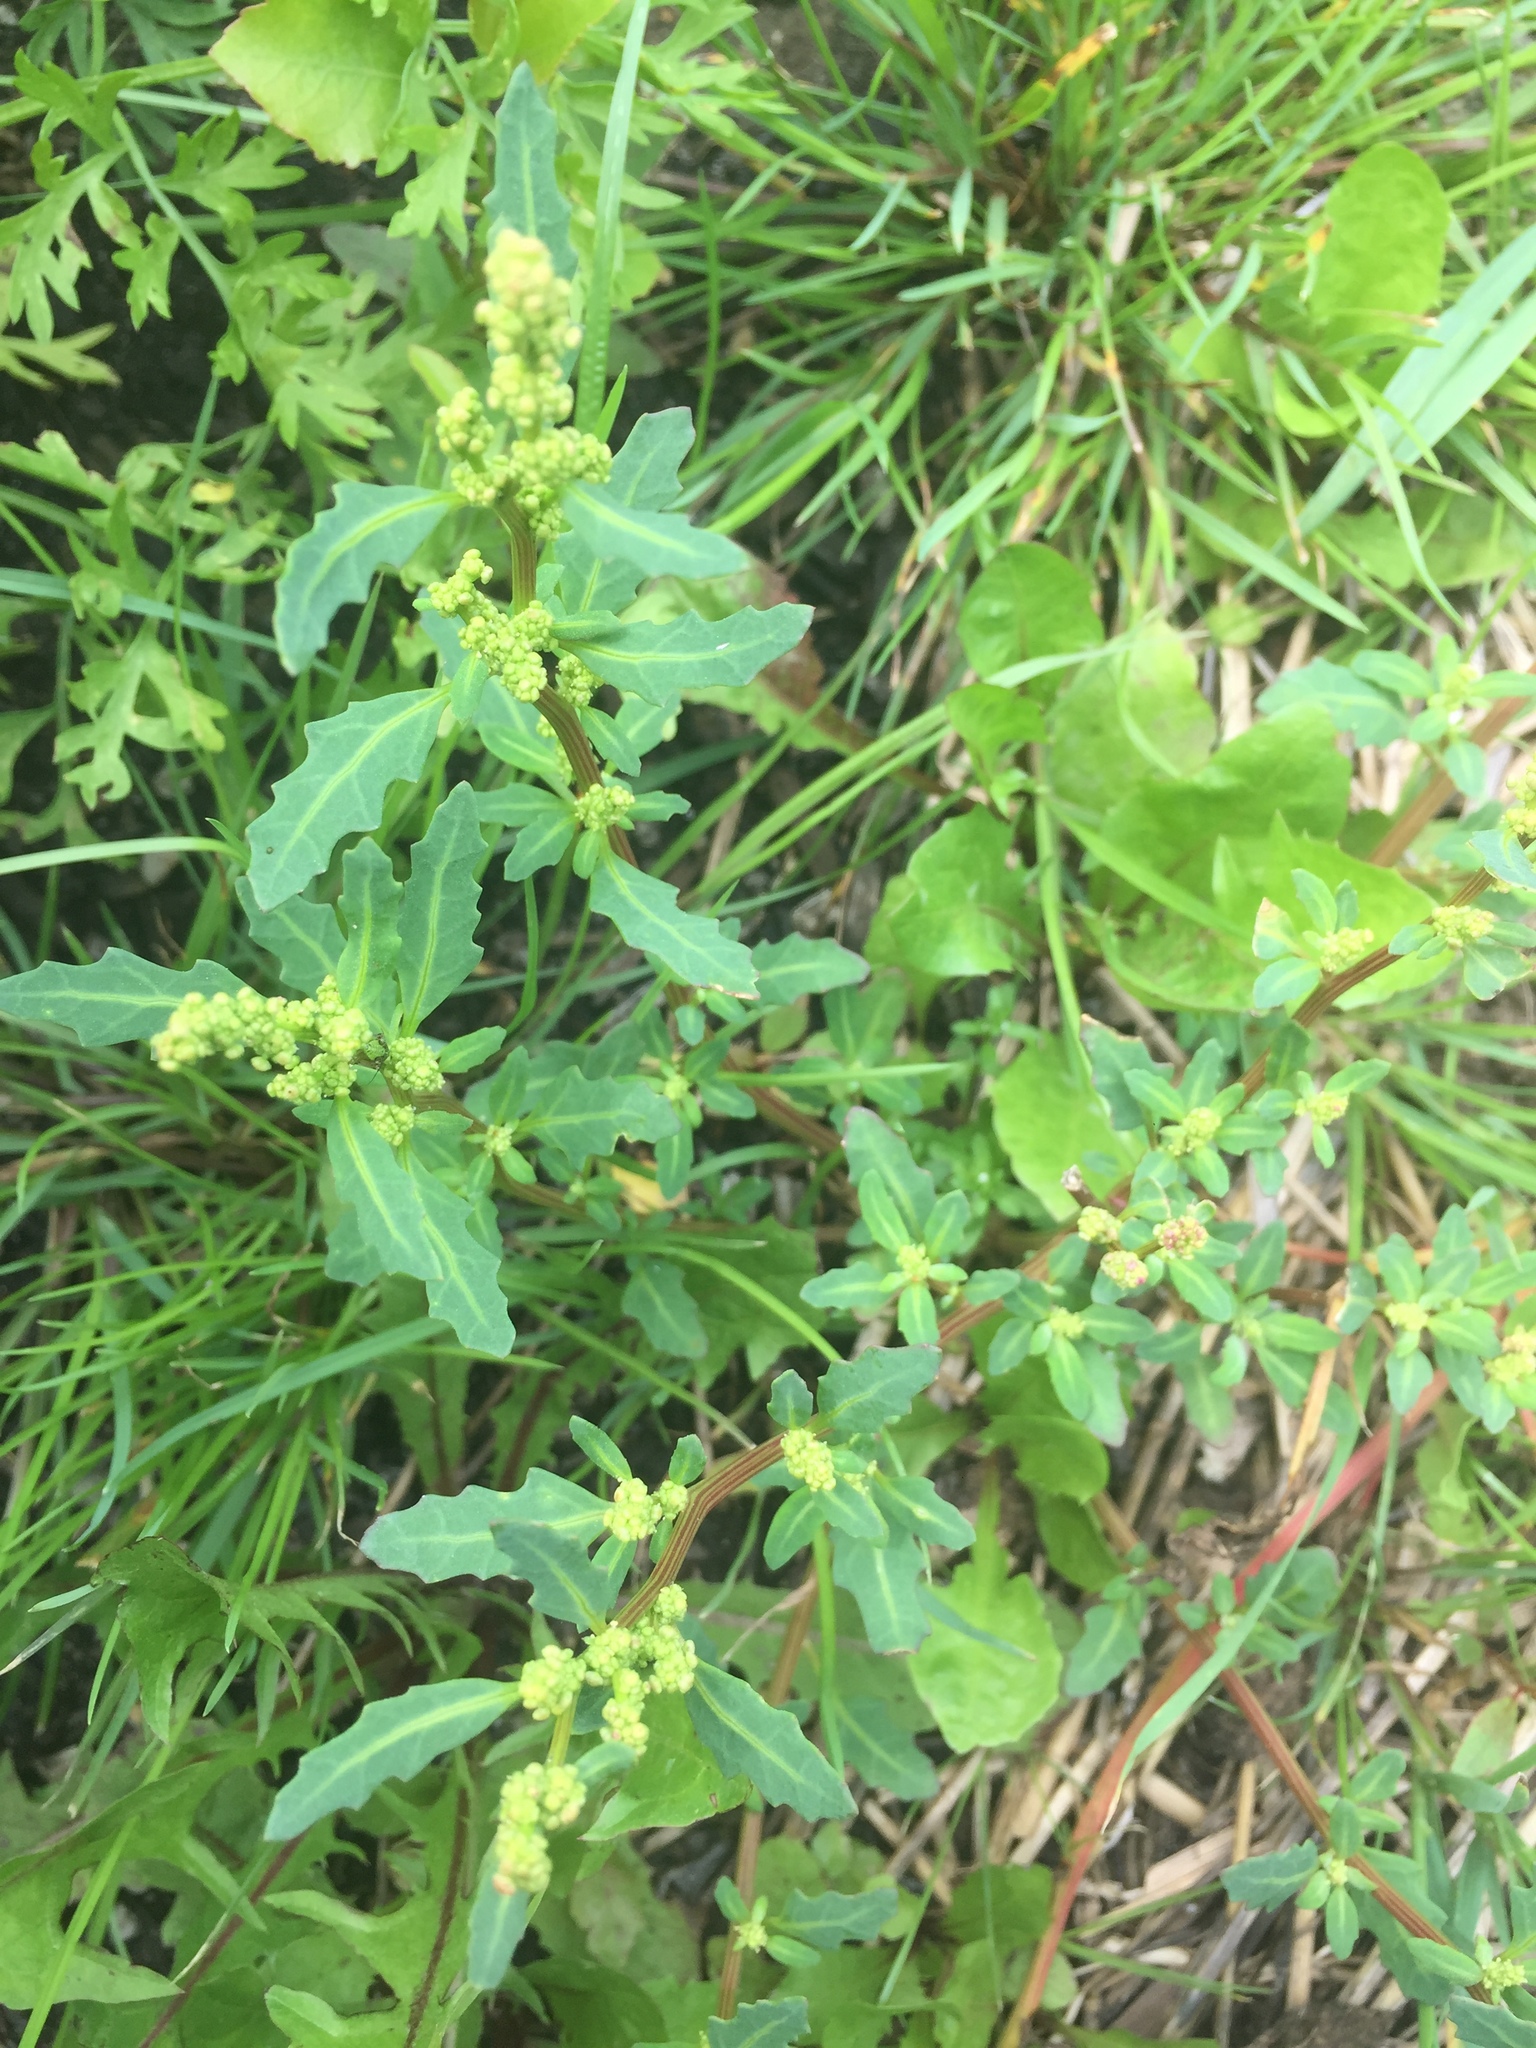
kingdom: Plantae
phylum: Tracheophyta
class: Magnoliopsida
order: Caryophyllales
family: Amaranthaceae
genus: Oxybasis
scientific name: Oxybasis glauca
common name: Glaucous goosefoot
